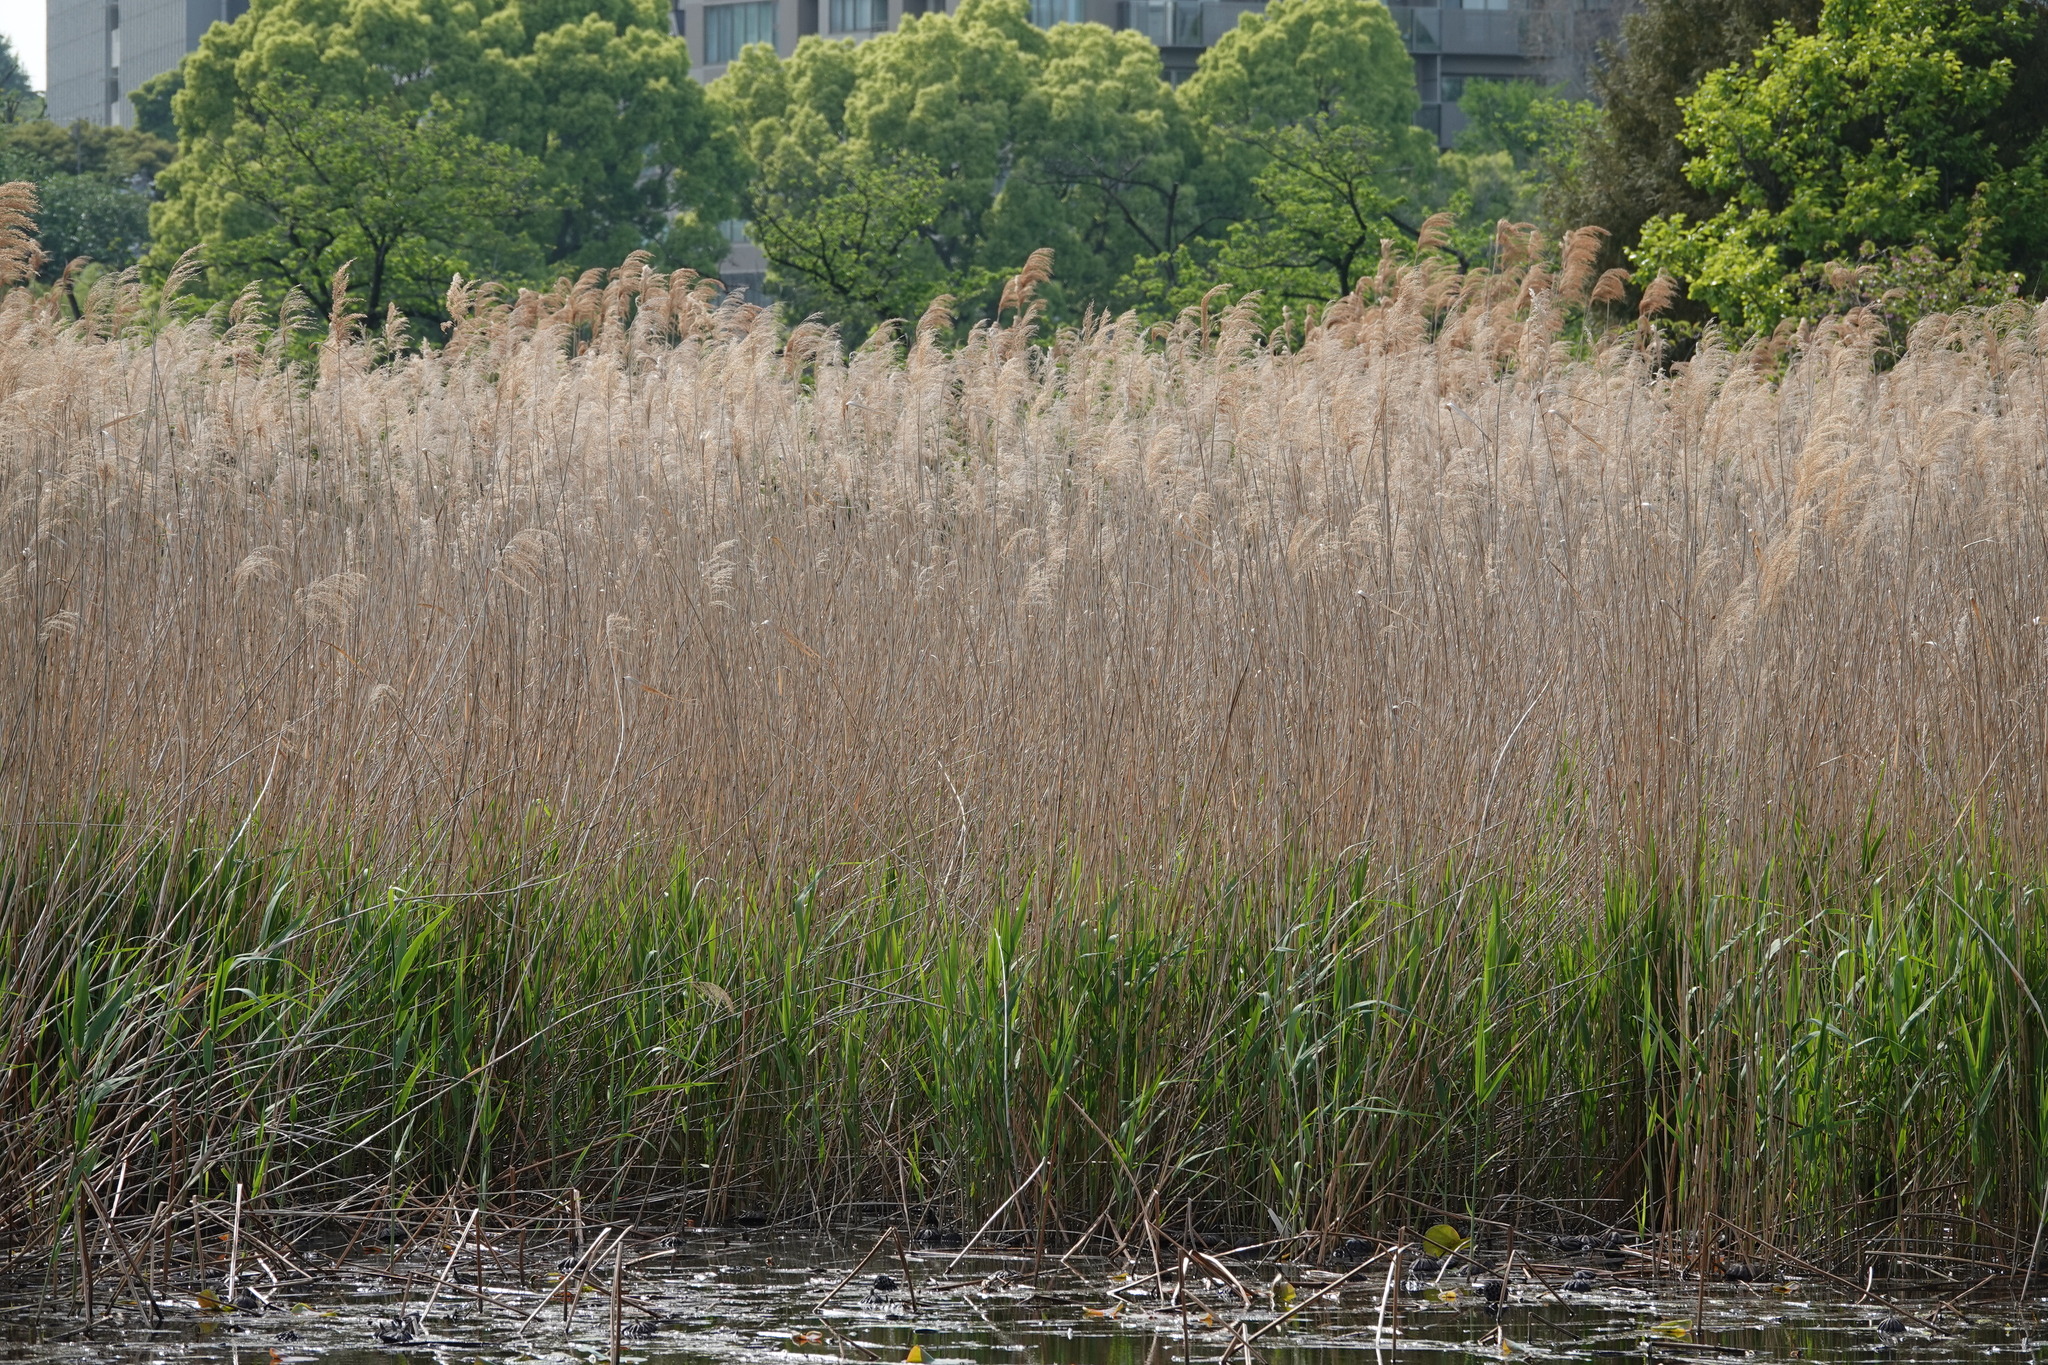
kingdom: Plantae
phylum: Tracheophyta
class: Liliopsida
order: Poales
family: Poaceae
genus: Phragmites
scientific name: Phragmites australis
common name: Common reed
